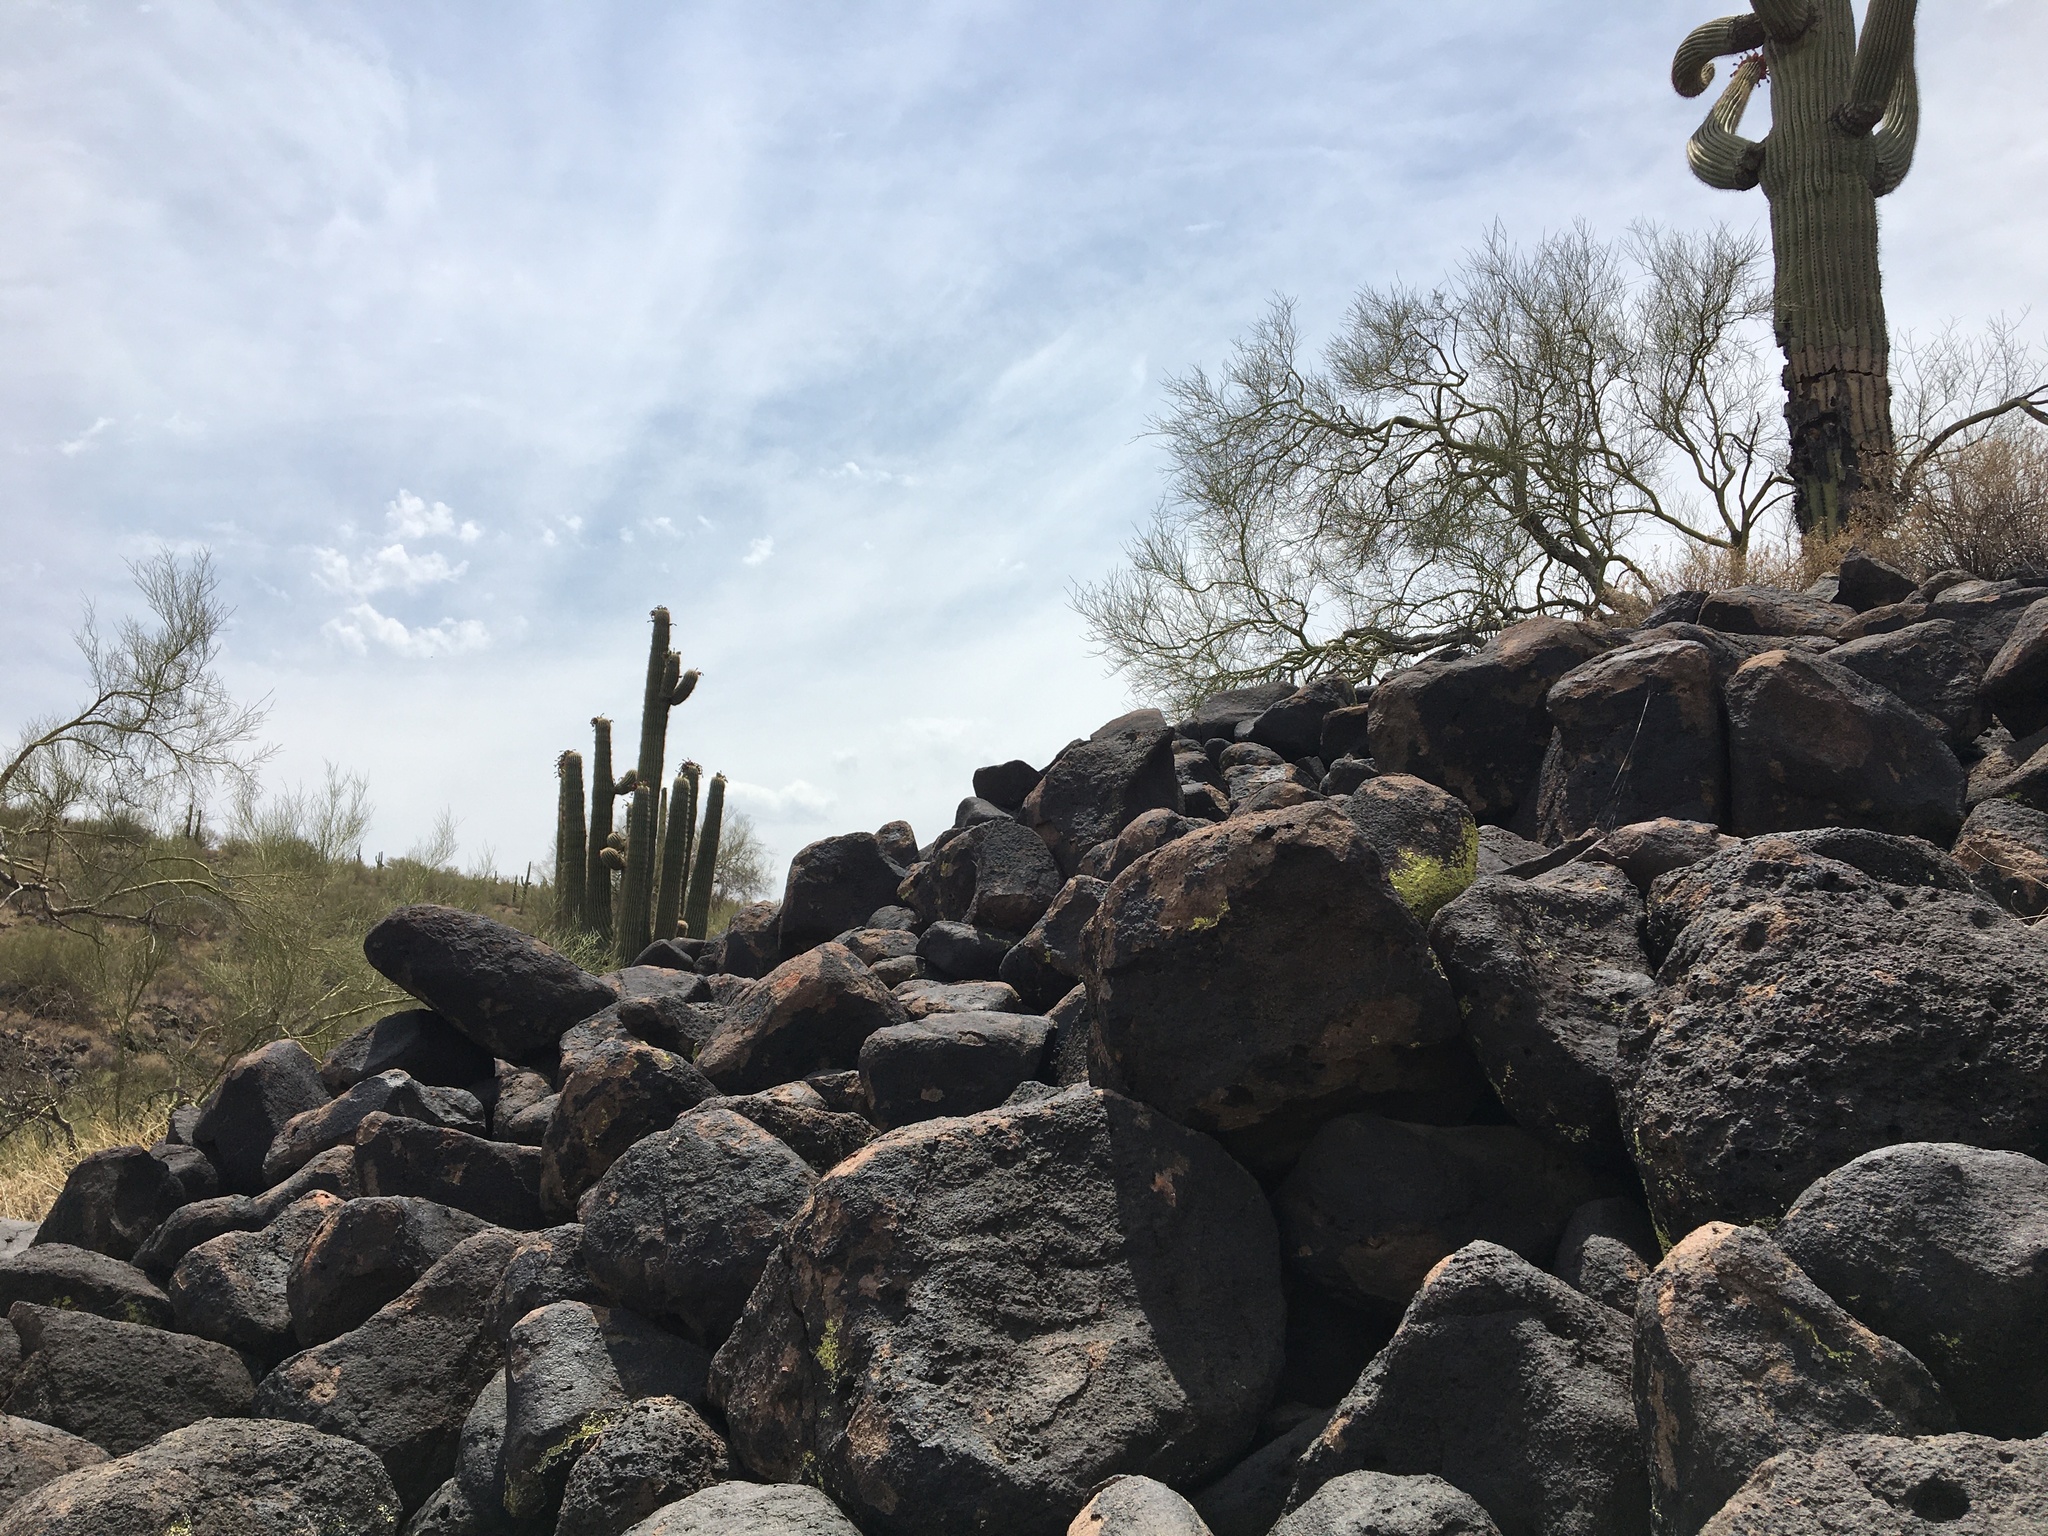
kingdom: Plantae
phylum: Tracheophyta
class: Magnoliopsida
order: Caryophyllales
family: Cactaceae
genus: Carnegiea
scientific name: Carnegiea gigantea
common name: Saguaro
